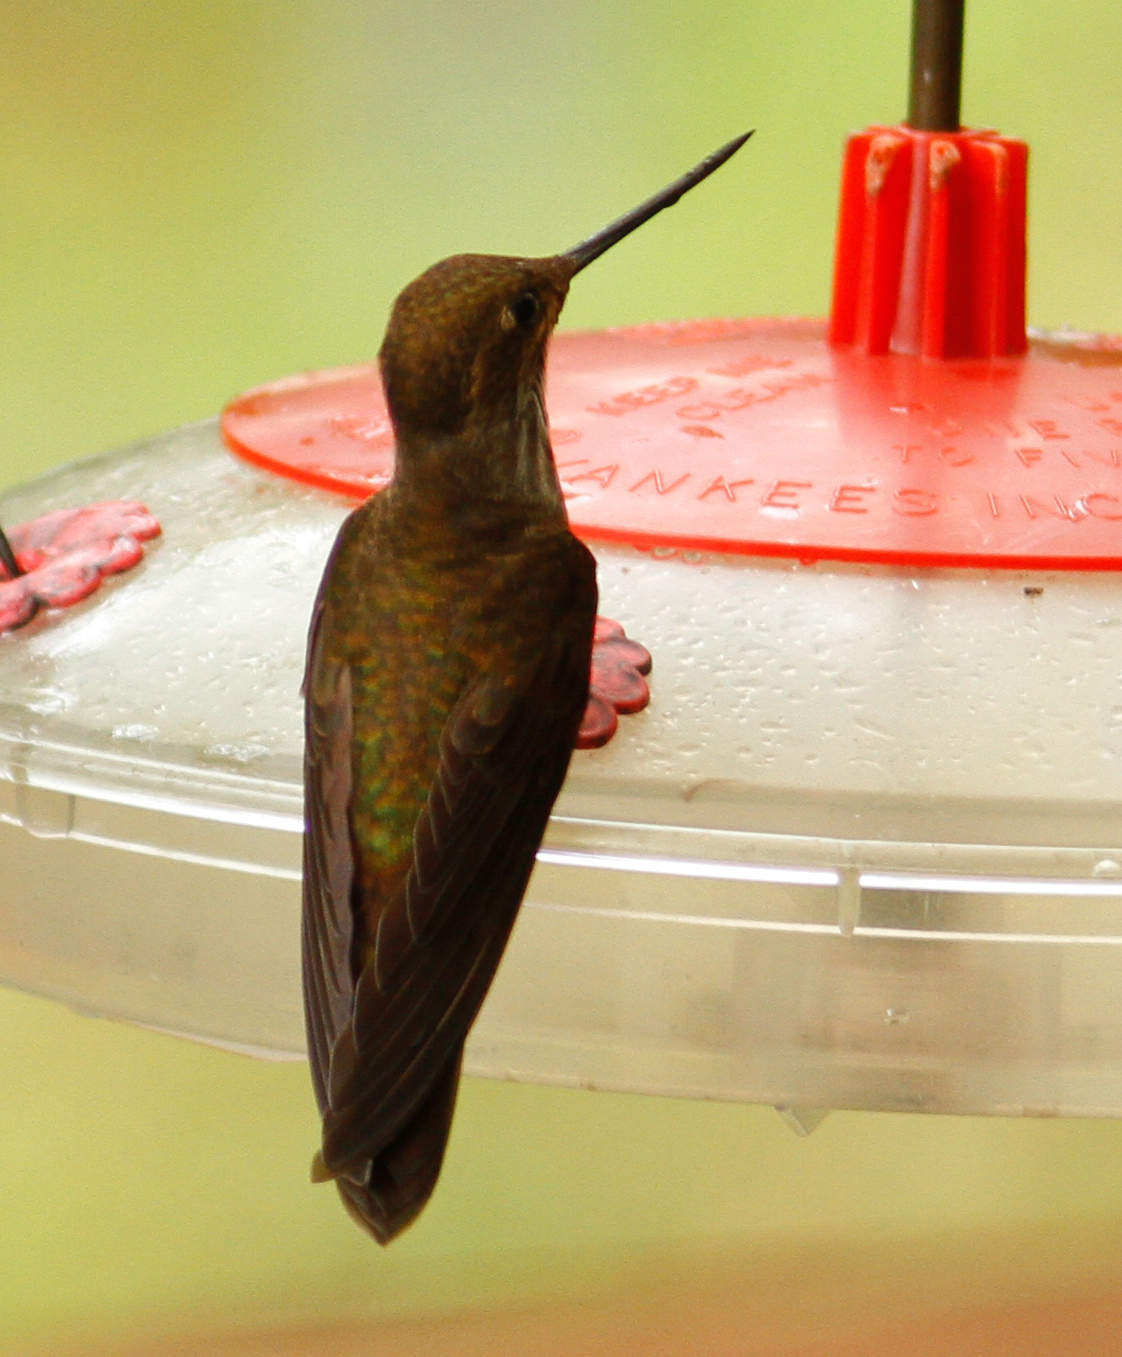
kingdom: Animalia
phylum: Chordata
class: Aves
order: Apodiformes
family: Trochilidae
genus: Coeligena
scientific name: Coeligena coeligena
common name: Bronzy inca
